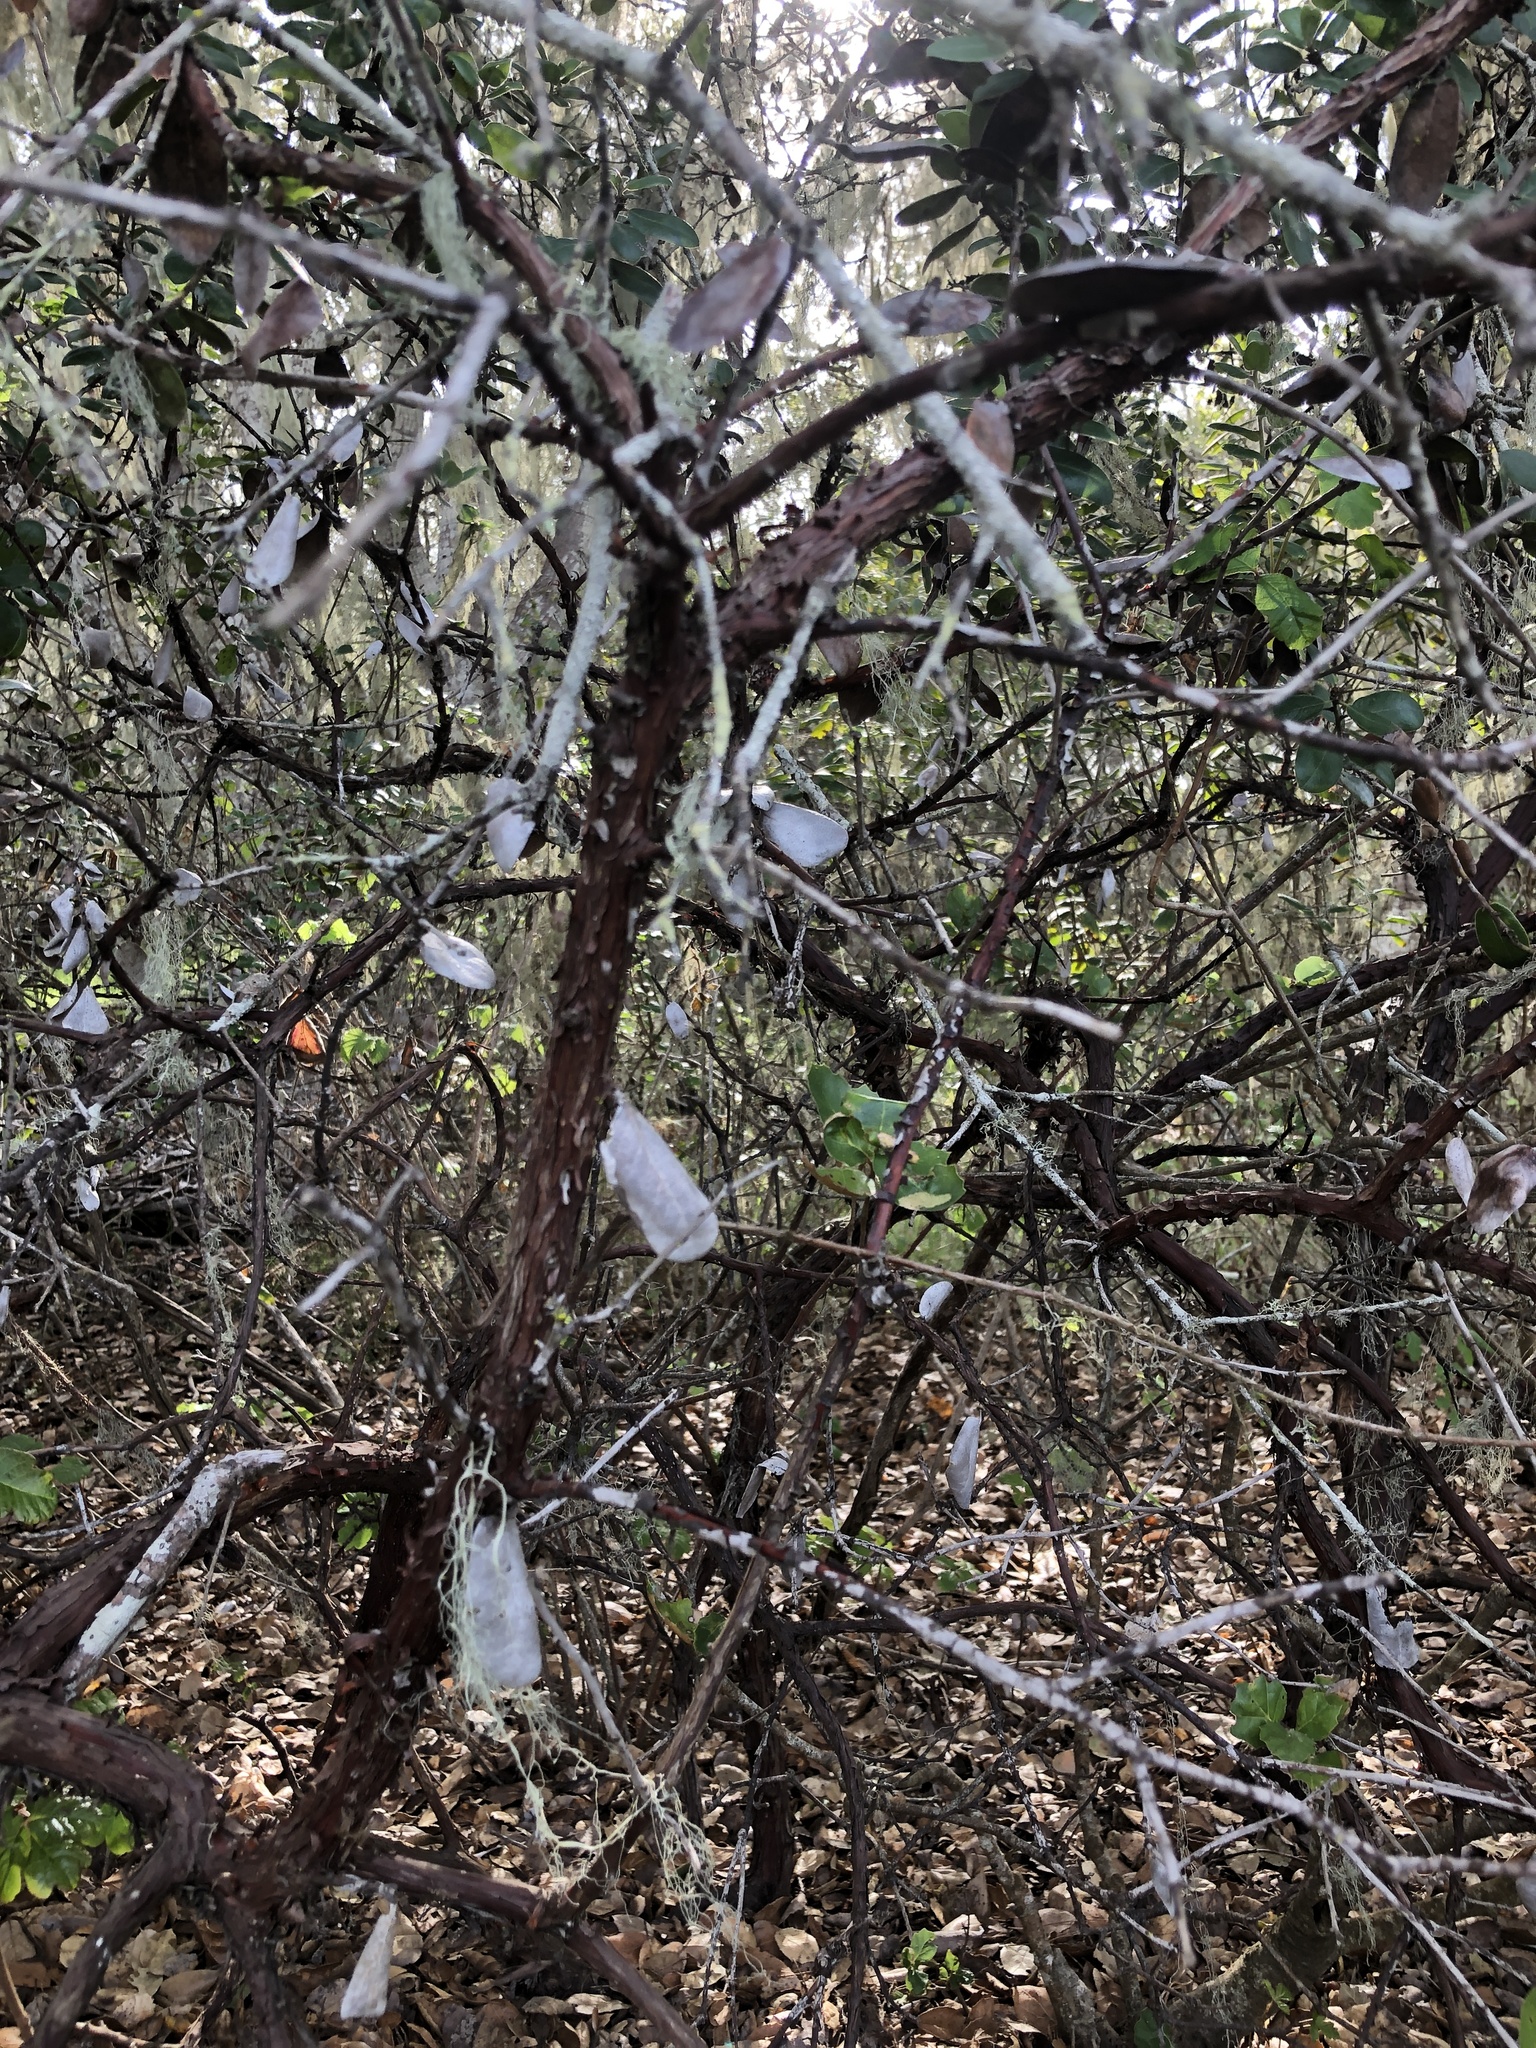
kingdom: Plantae
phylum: Tracheophyta
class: Magnoliopsida
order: Ericales
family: Ericaceae
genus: Arctostaphylos
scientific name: Arctostaphylos tomentosa
